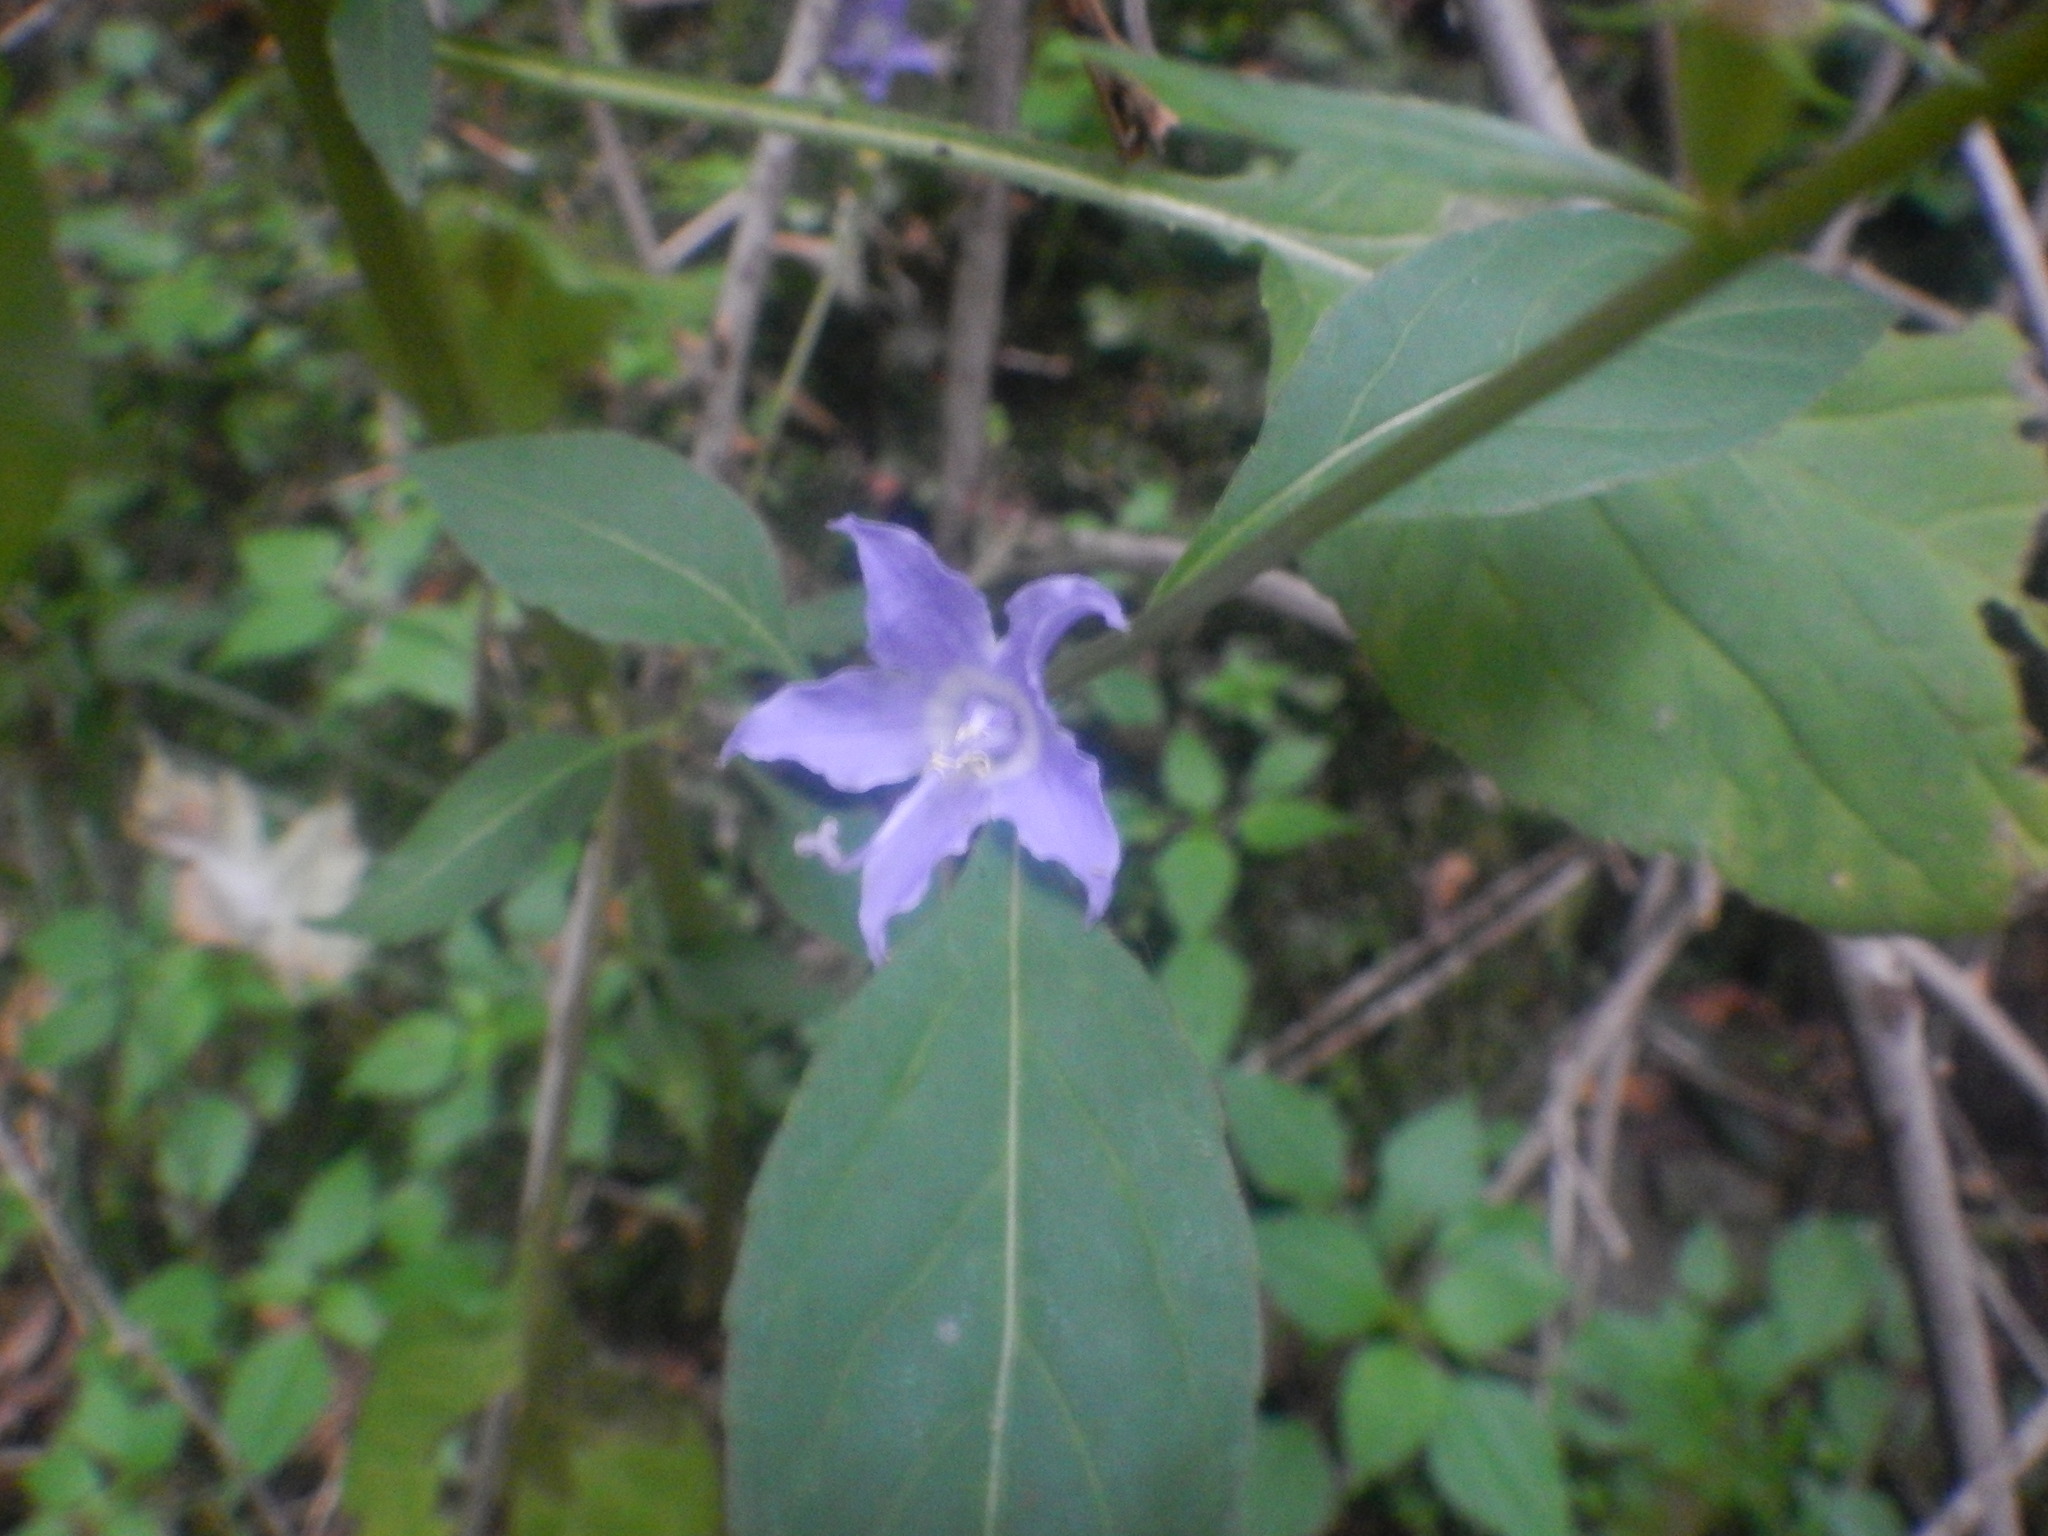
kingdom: Plantae
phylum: Tracheophyta
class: Magnoliopsida
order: Asterales
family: Campanulaceae
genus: Campanulastrum
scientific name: Campanulastrum americanum
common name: American bellflower
